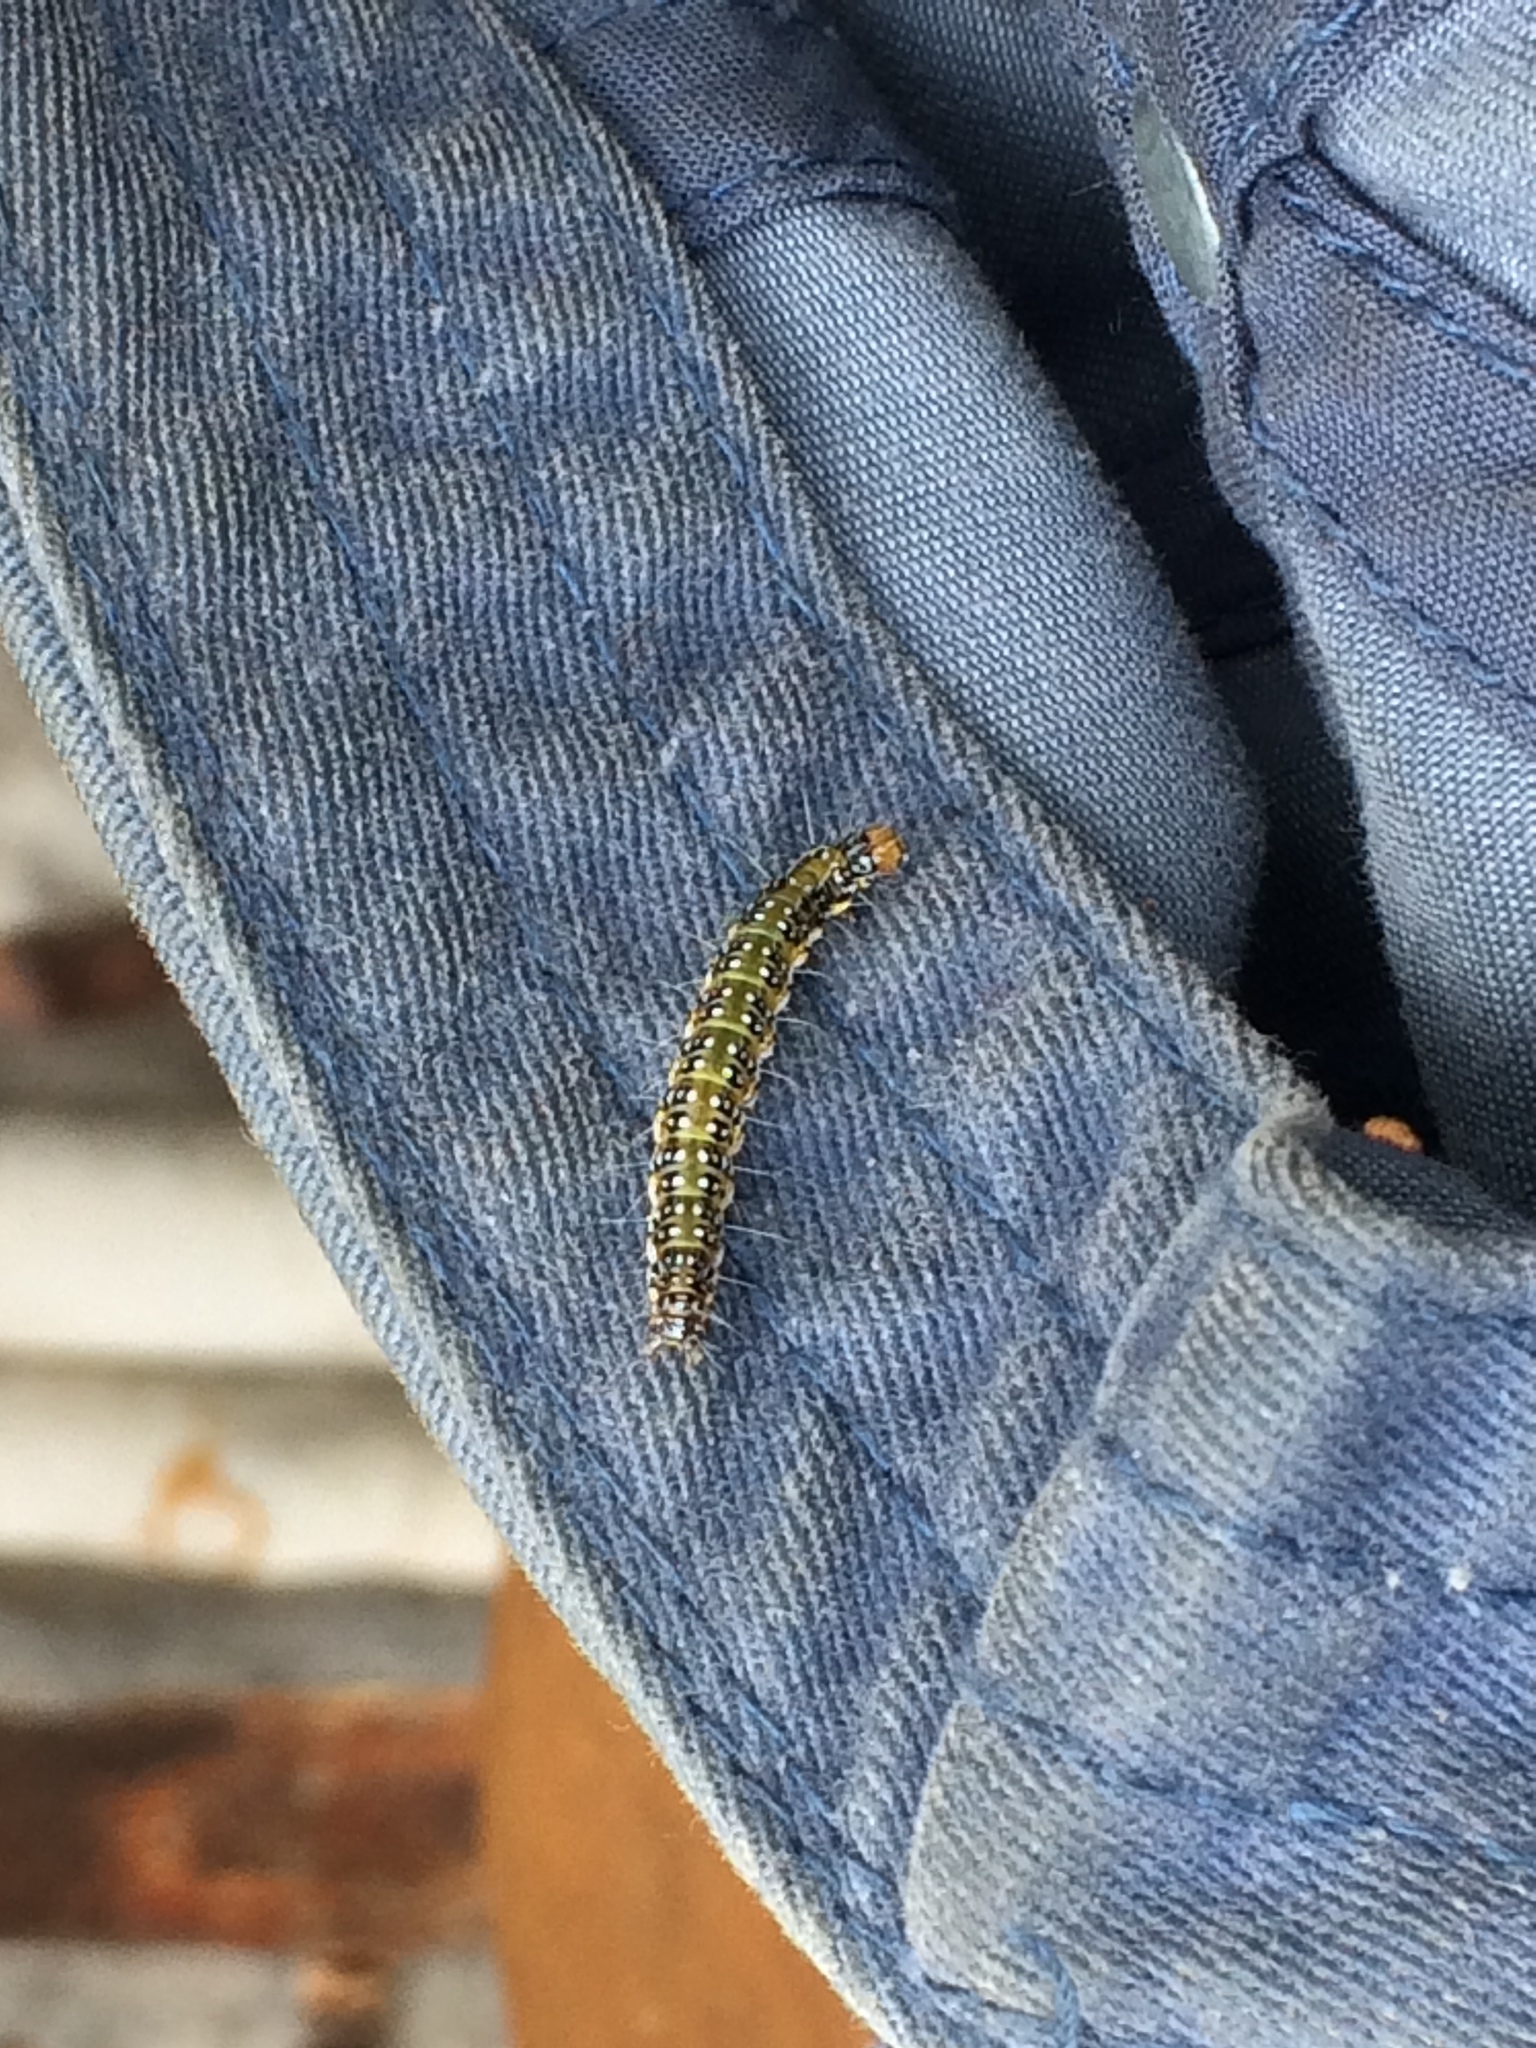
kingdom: Animalia
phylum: Arthropoda
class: Insecta
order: Lepidoptera
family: Crambidae
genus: Uresiphita
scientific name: Uresiphita
